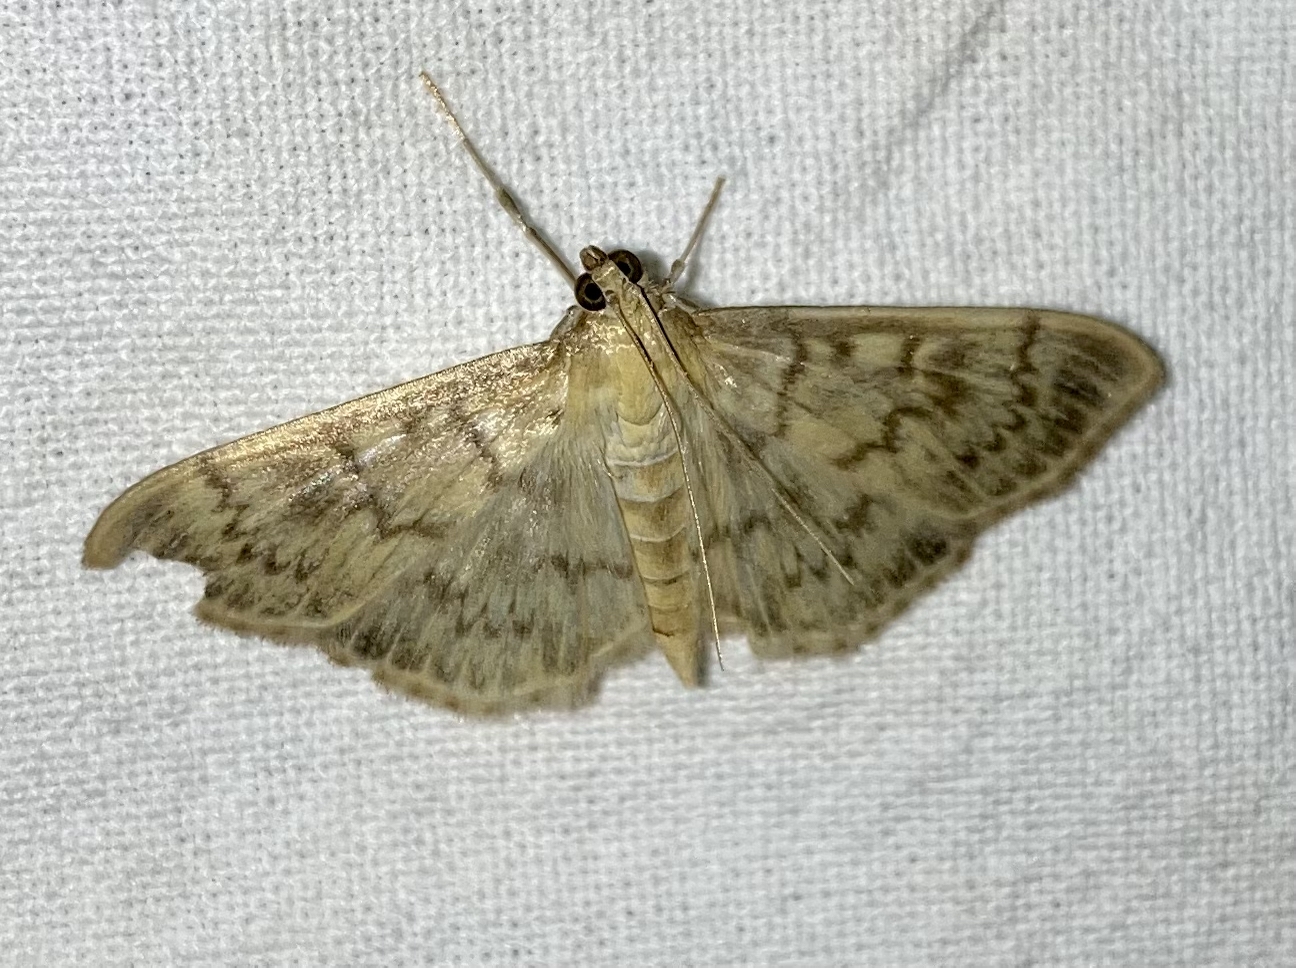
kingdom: Animalia
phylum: Arthropoda
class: Insecta
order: Lepidoptera
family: Crambidae
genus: Patania
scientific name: Patania ruralis
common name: Mother of pearl
